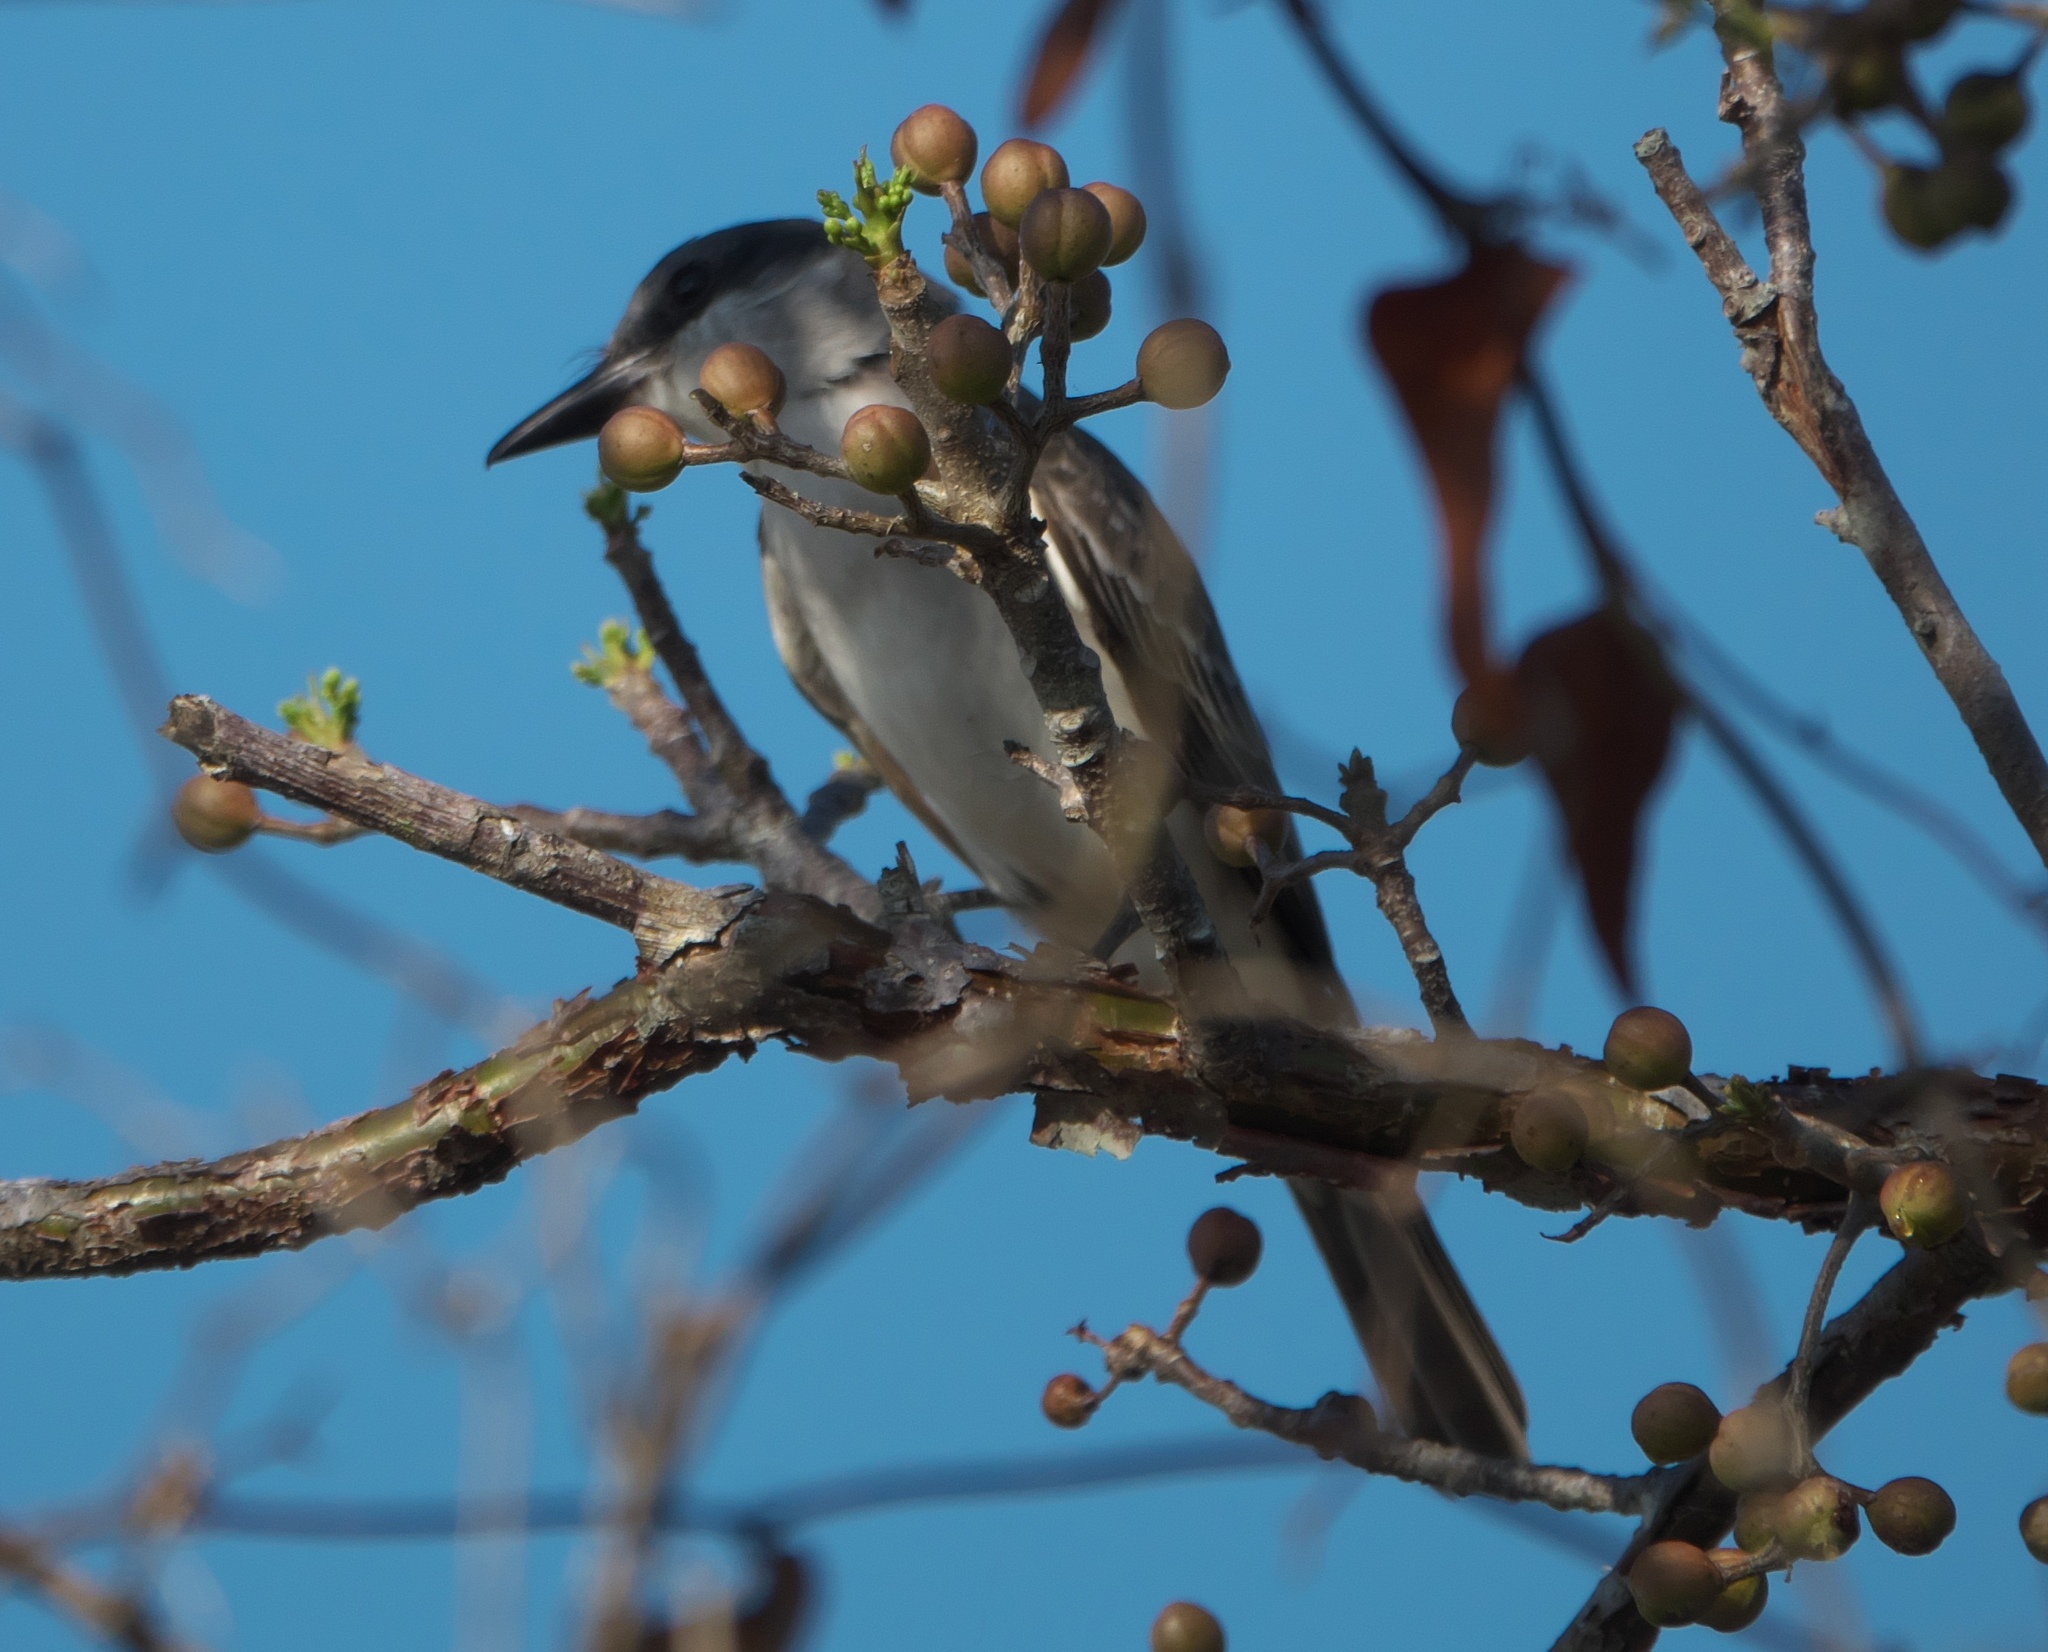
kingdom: Animalia
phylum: Chordata
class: Aves
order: Passeriformes
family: Tyrannidae
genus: Tyrannus
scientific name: Tyrannus dominicensis
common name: Gray kingbird
